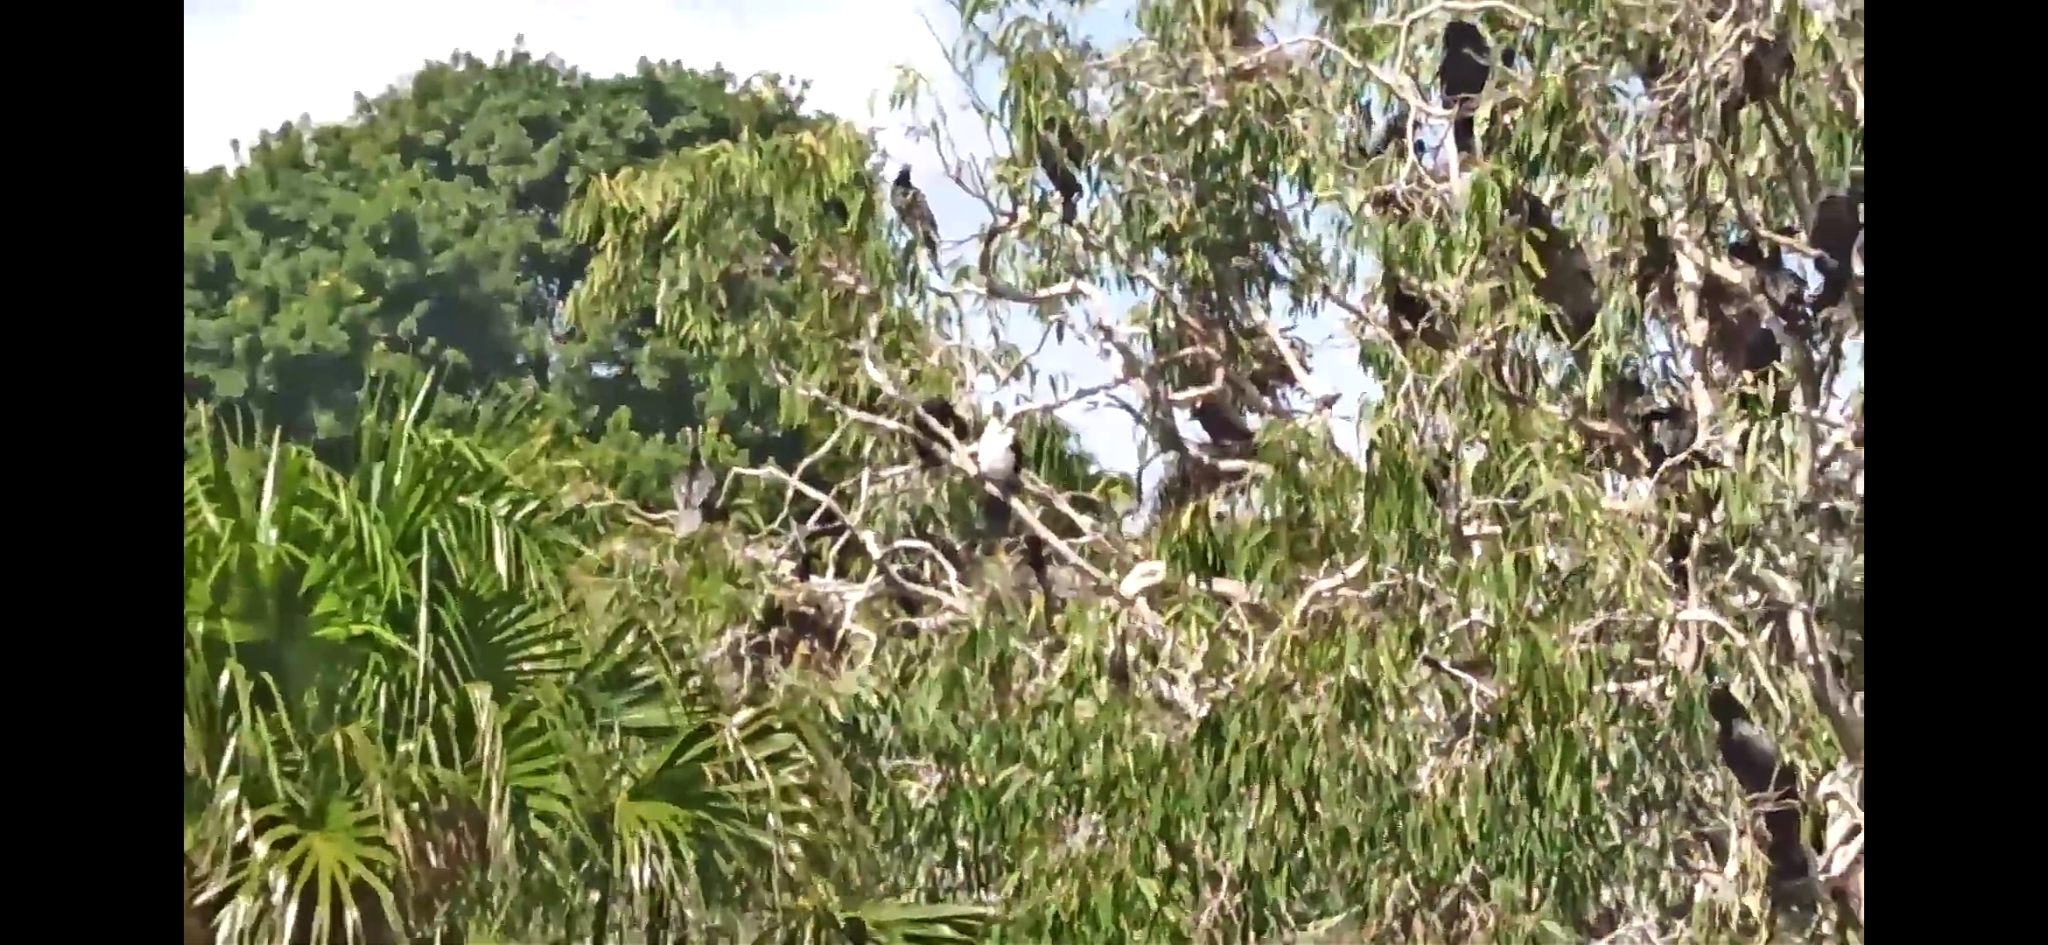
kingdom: Animalia
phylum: Chordata
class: Aves
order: Suliformes
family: Phalacrocoracidae
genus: Microcarbo
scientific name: Microcarbo melanoleucos
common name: Little pied cormorant
